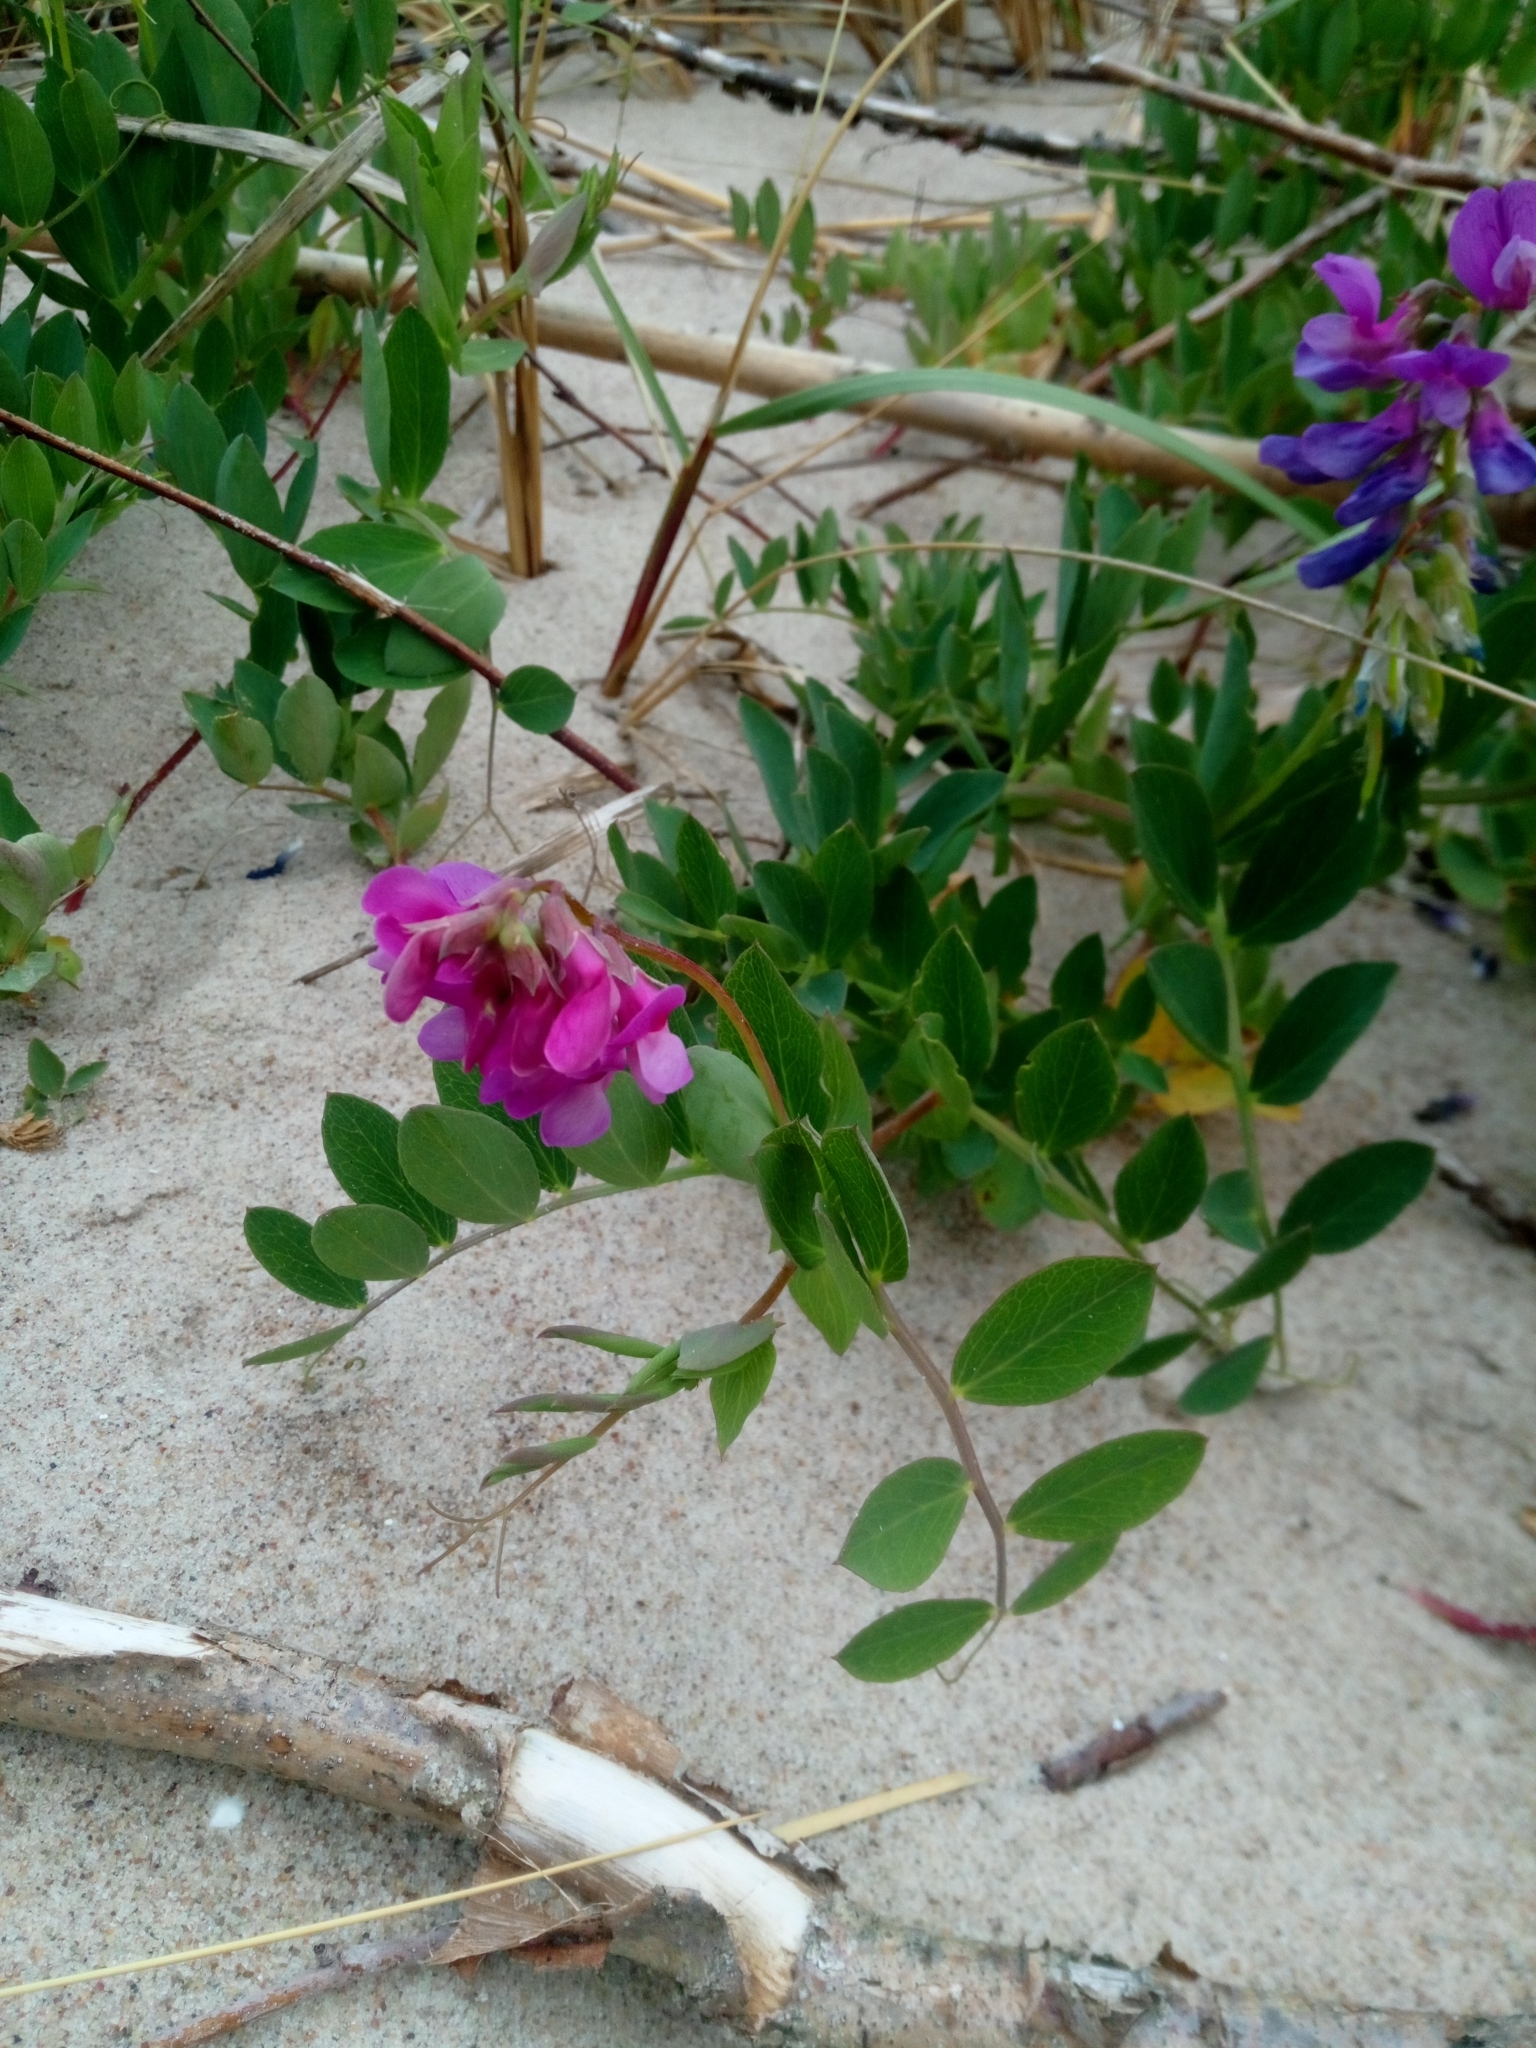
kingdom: Plantae
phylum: Tracheophyta
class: Magnoliopsida
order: Fabales
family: Fabaceae
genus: Lathyrus
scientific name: Lathyrus japonicus
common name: Sea pea
